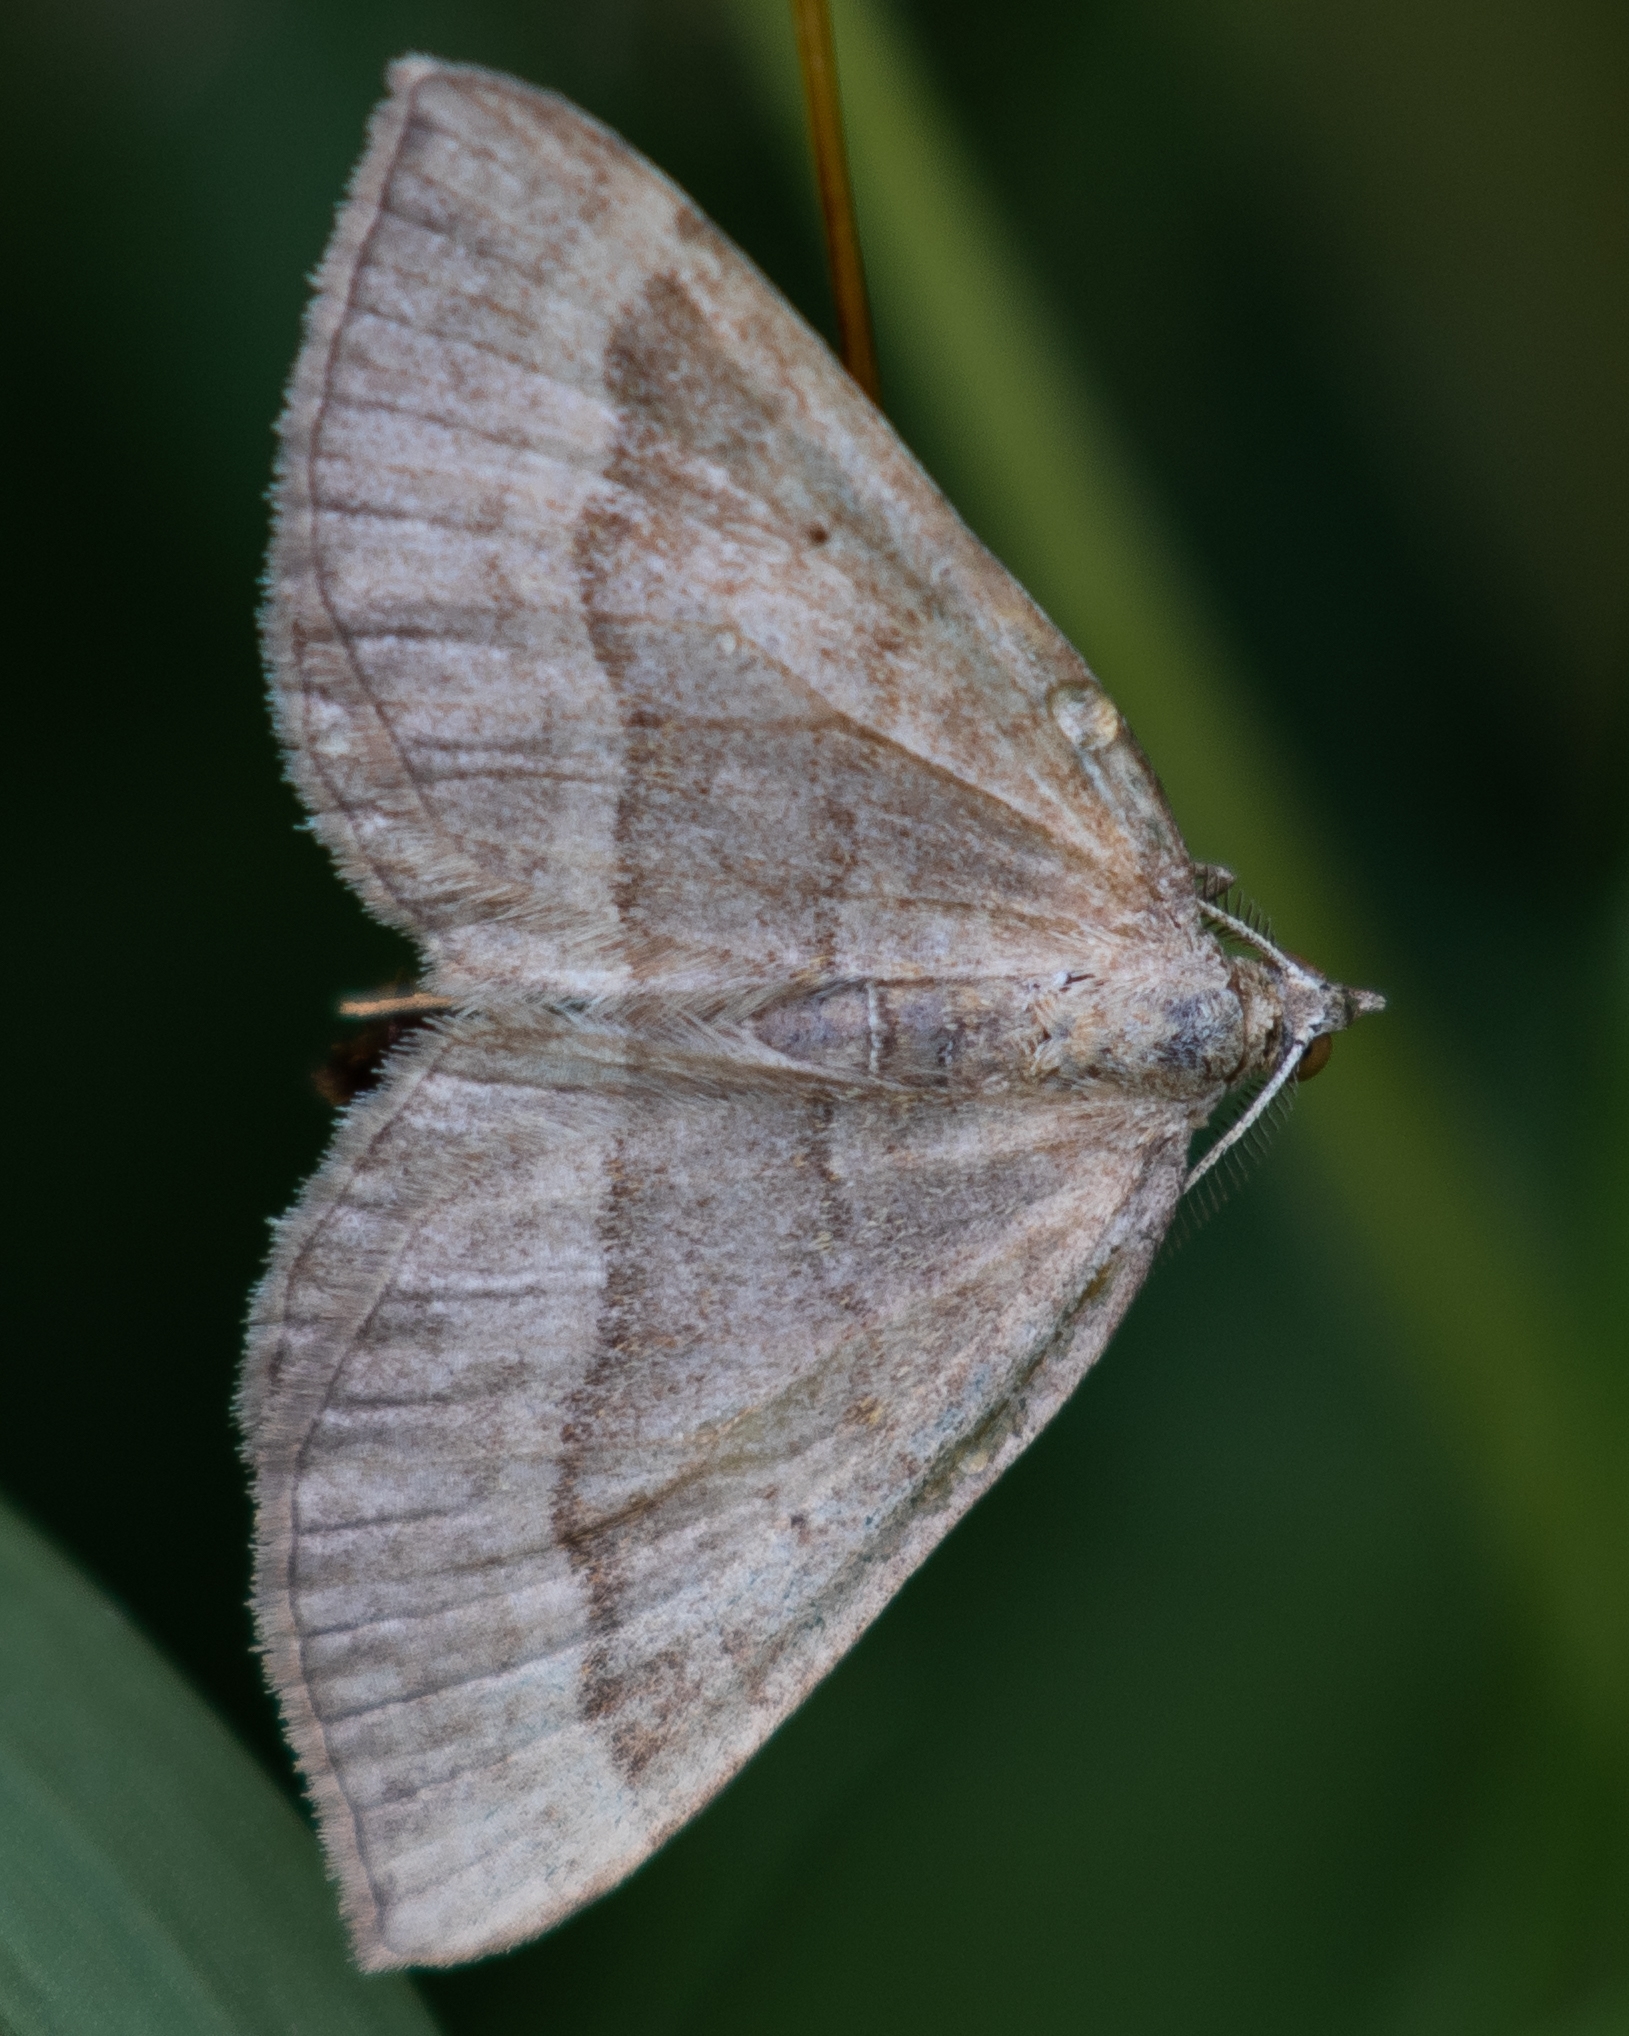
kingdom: Animalia
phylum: Arthropoda
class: Insecta
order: Lepidoptera
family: Geometridae
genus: Scotopteryx
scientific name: Scotopteryx chenopodiata
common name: Shaded broad-bar
